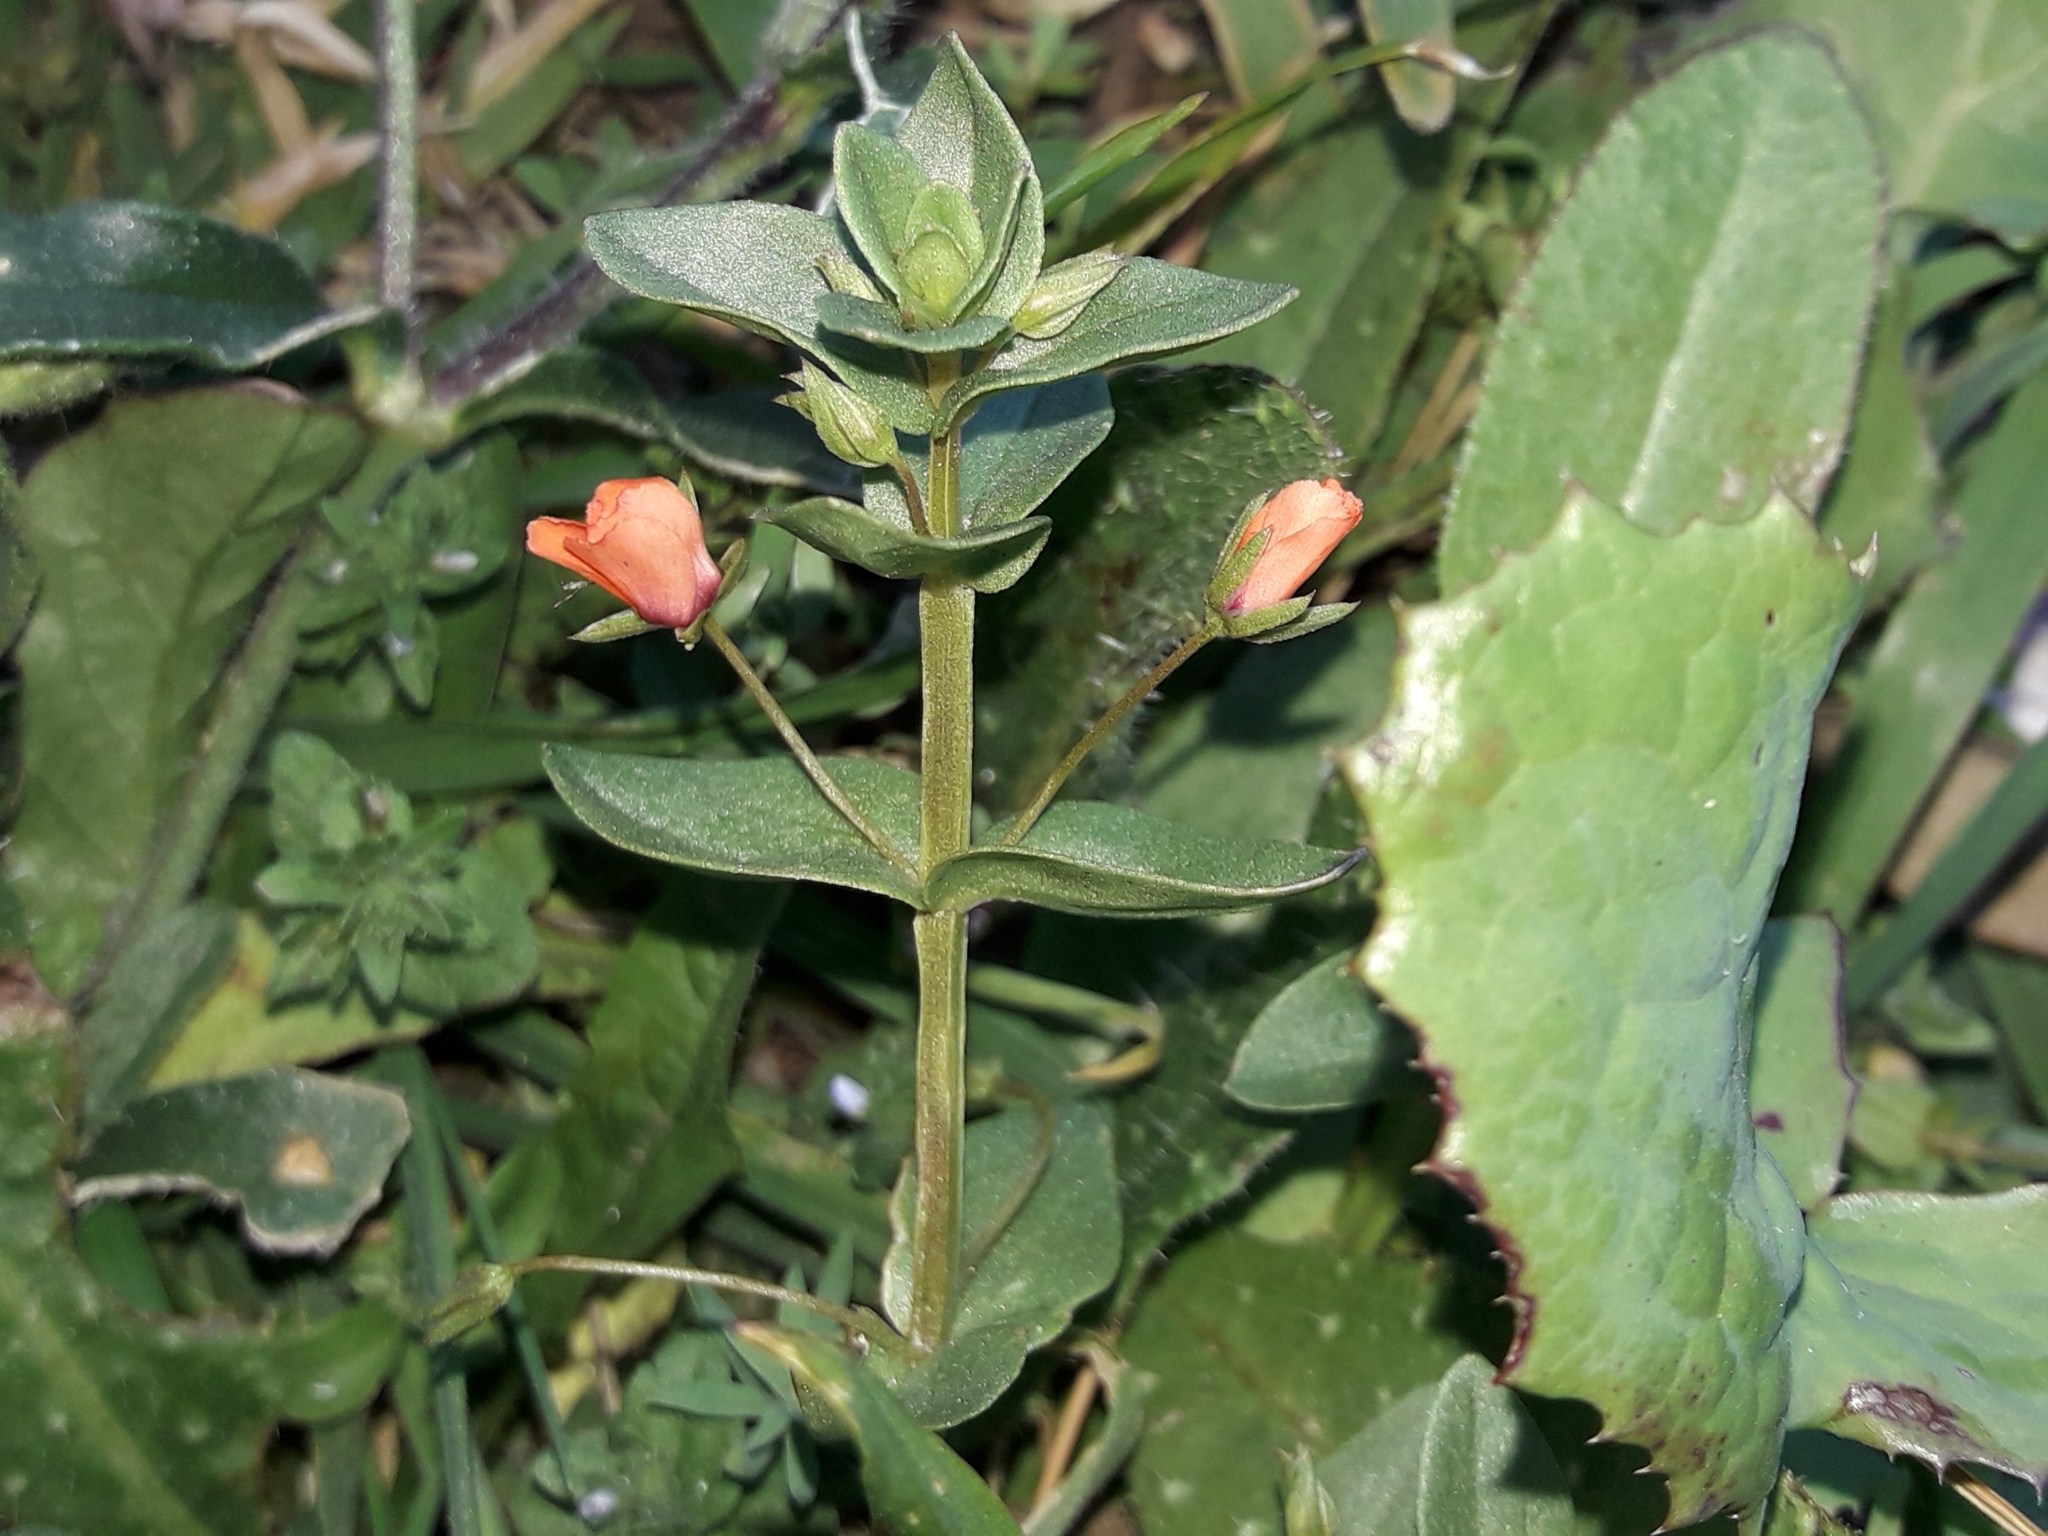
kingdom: Plantae
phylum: Tracheophyta
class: Magnoliopsida
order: Ericales
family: Primulaceae
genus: Lysimachia
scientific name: Lysimachia arvensis
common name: Scarlet pimpernel
